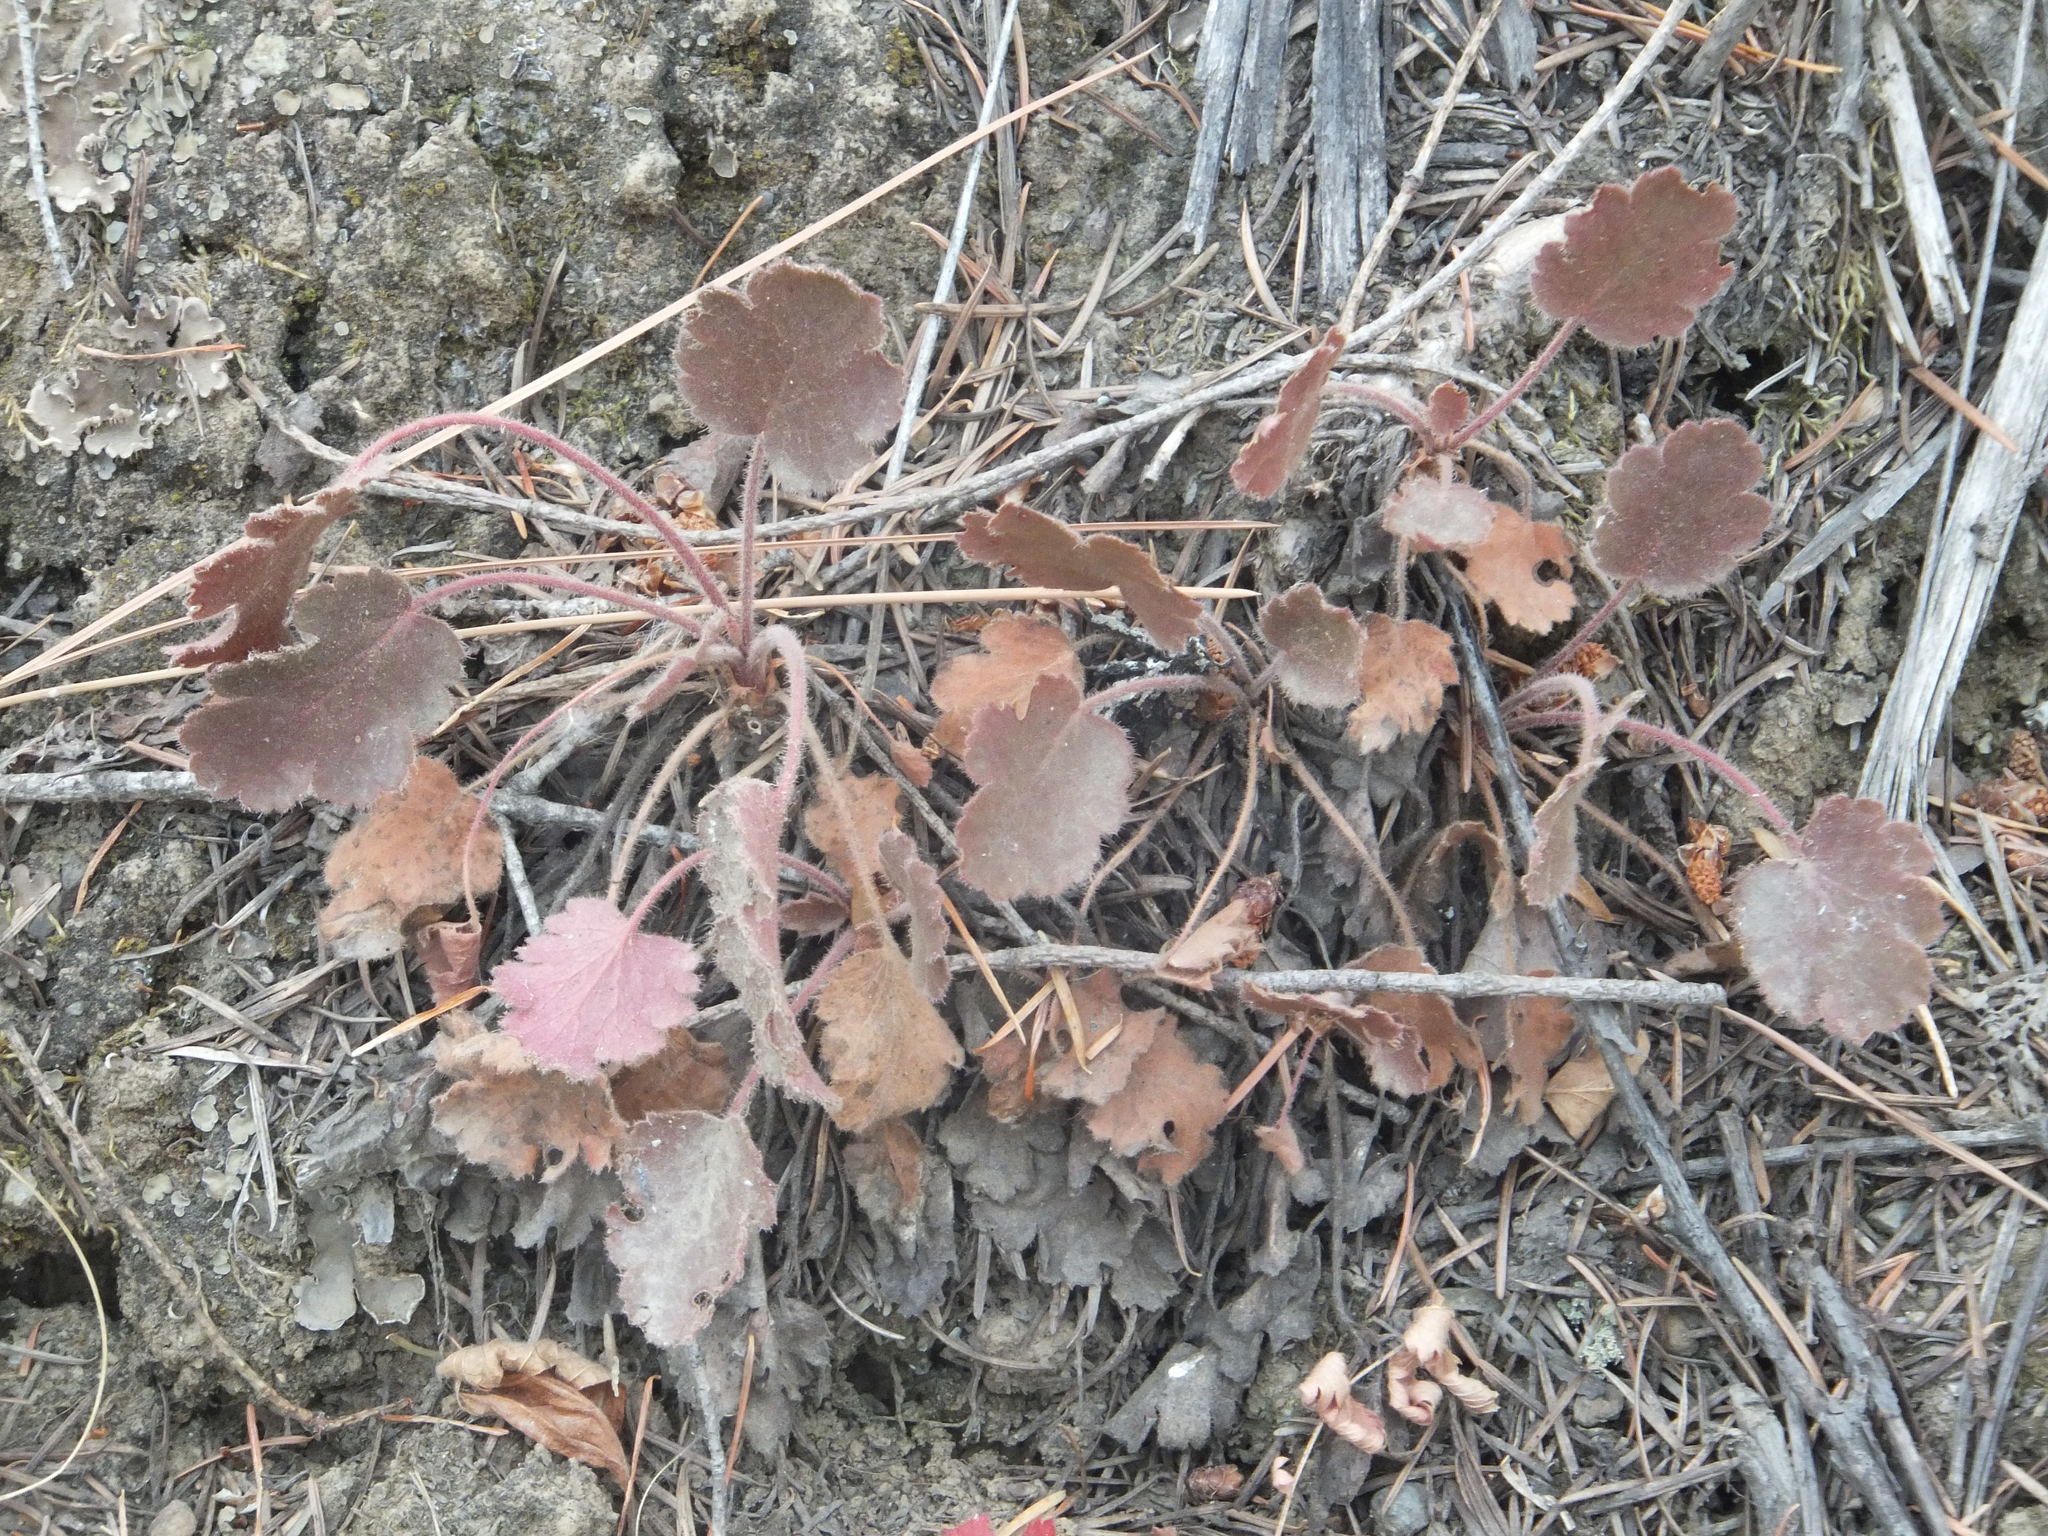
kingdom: Plantae
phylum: Tracheophyta
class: Magnoliopsida
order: Saxifragales
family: Saxifragaceae
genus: Heuchera
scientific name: Heuchera cylindrica
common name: Mat alumroot
